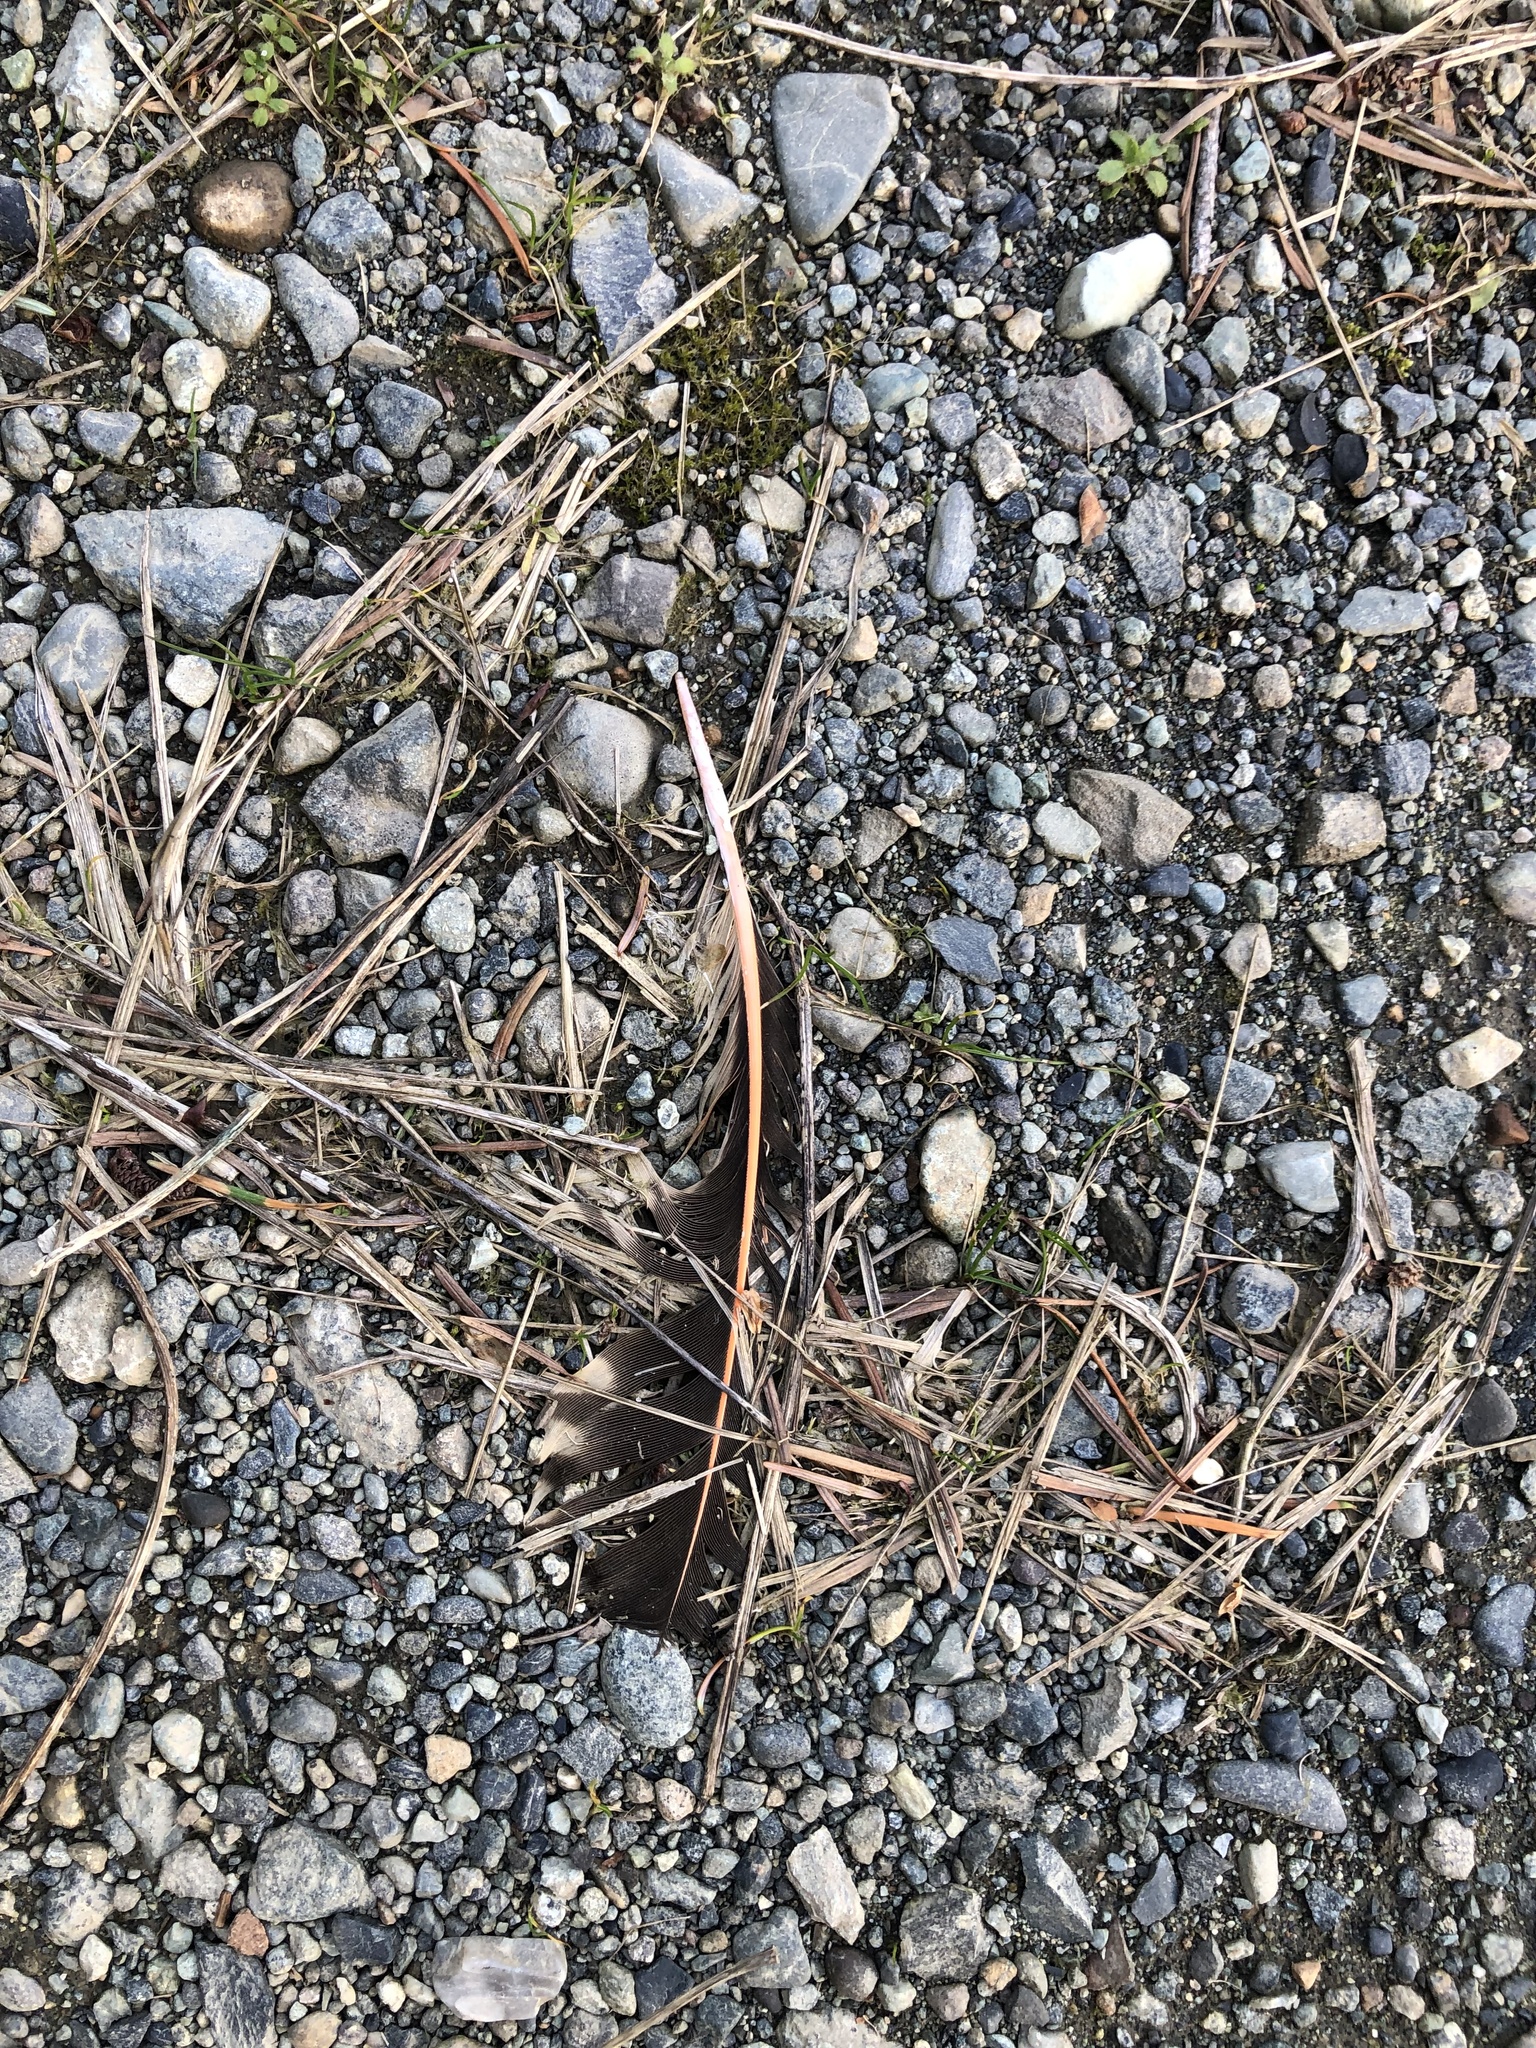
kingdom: Animalia
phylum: Chordata
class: Aves
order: Piciformes
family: Picidae
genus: Colaptes
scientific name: Colaptes auratus
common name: Northern flicker
